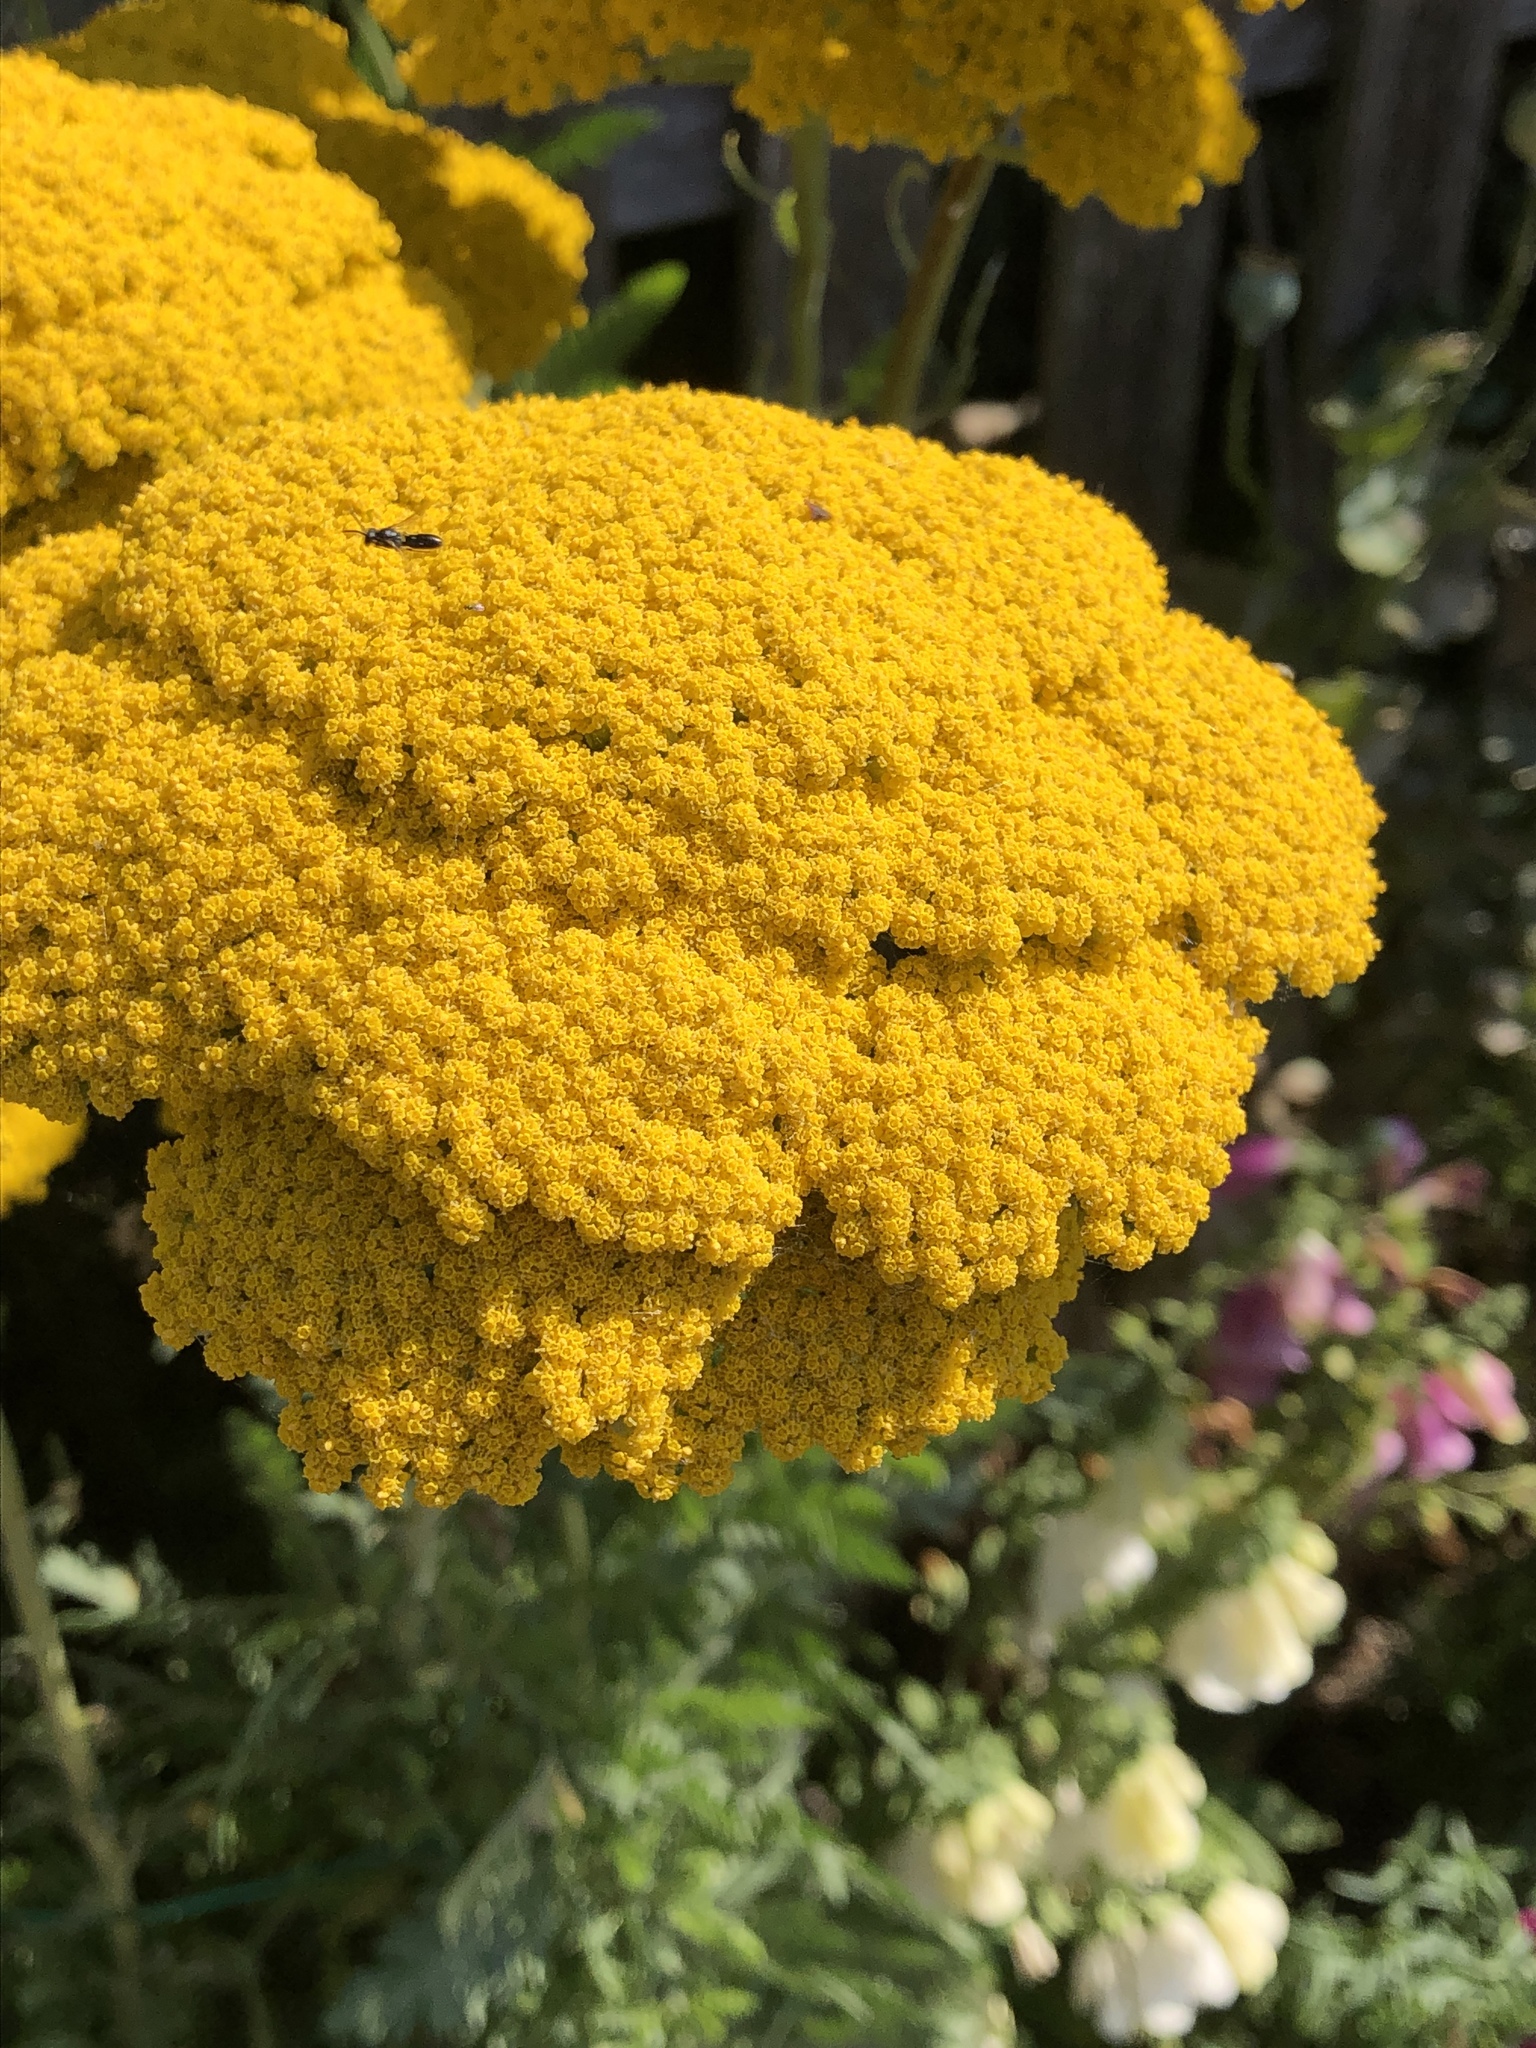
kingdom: Plantae
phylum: Tracheophyta
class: Magnoliopsida
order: Asterales
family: Asteraceae
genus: Achillea
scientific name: Achillea filipendulina
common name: Fernleaf yarrow
